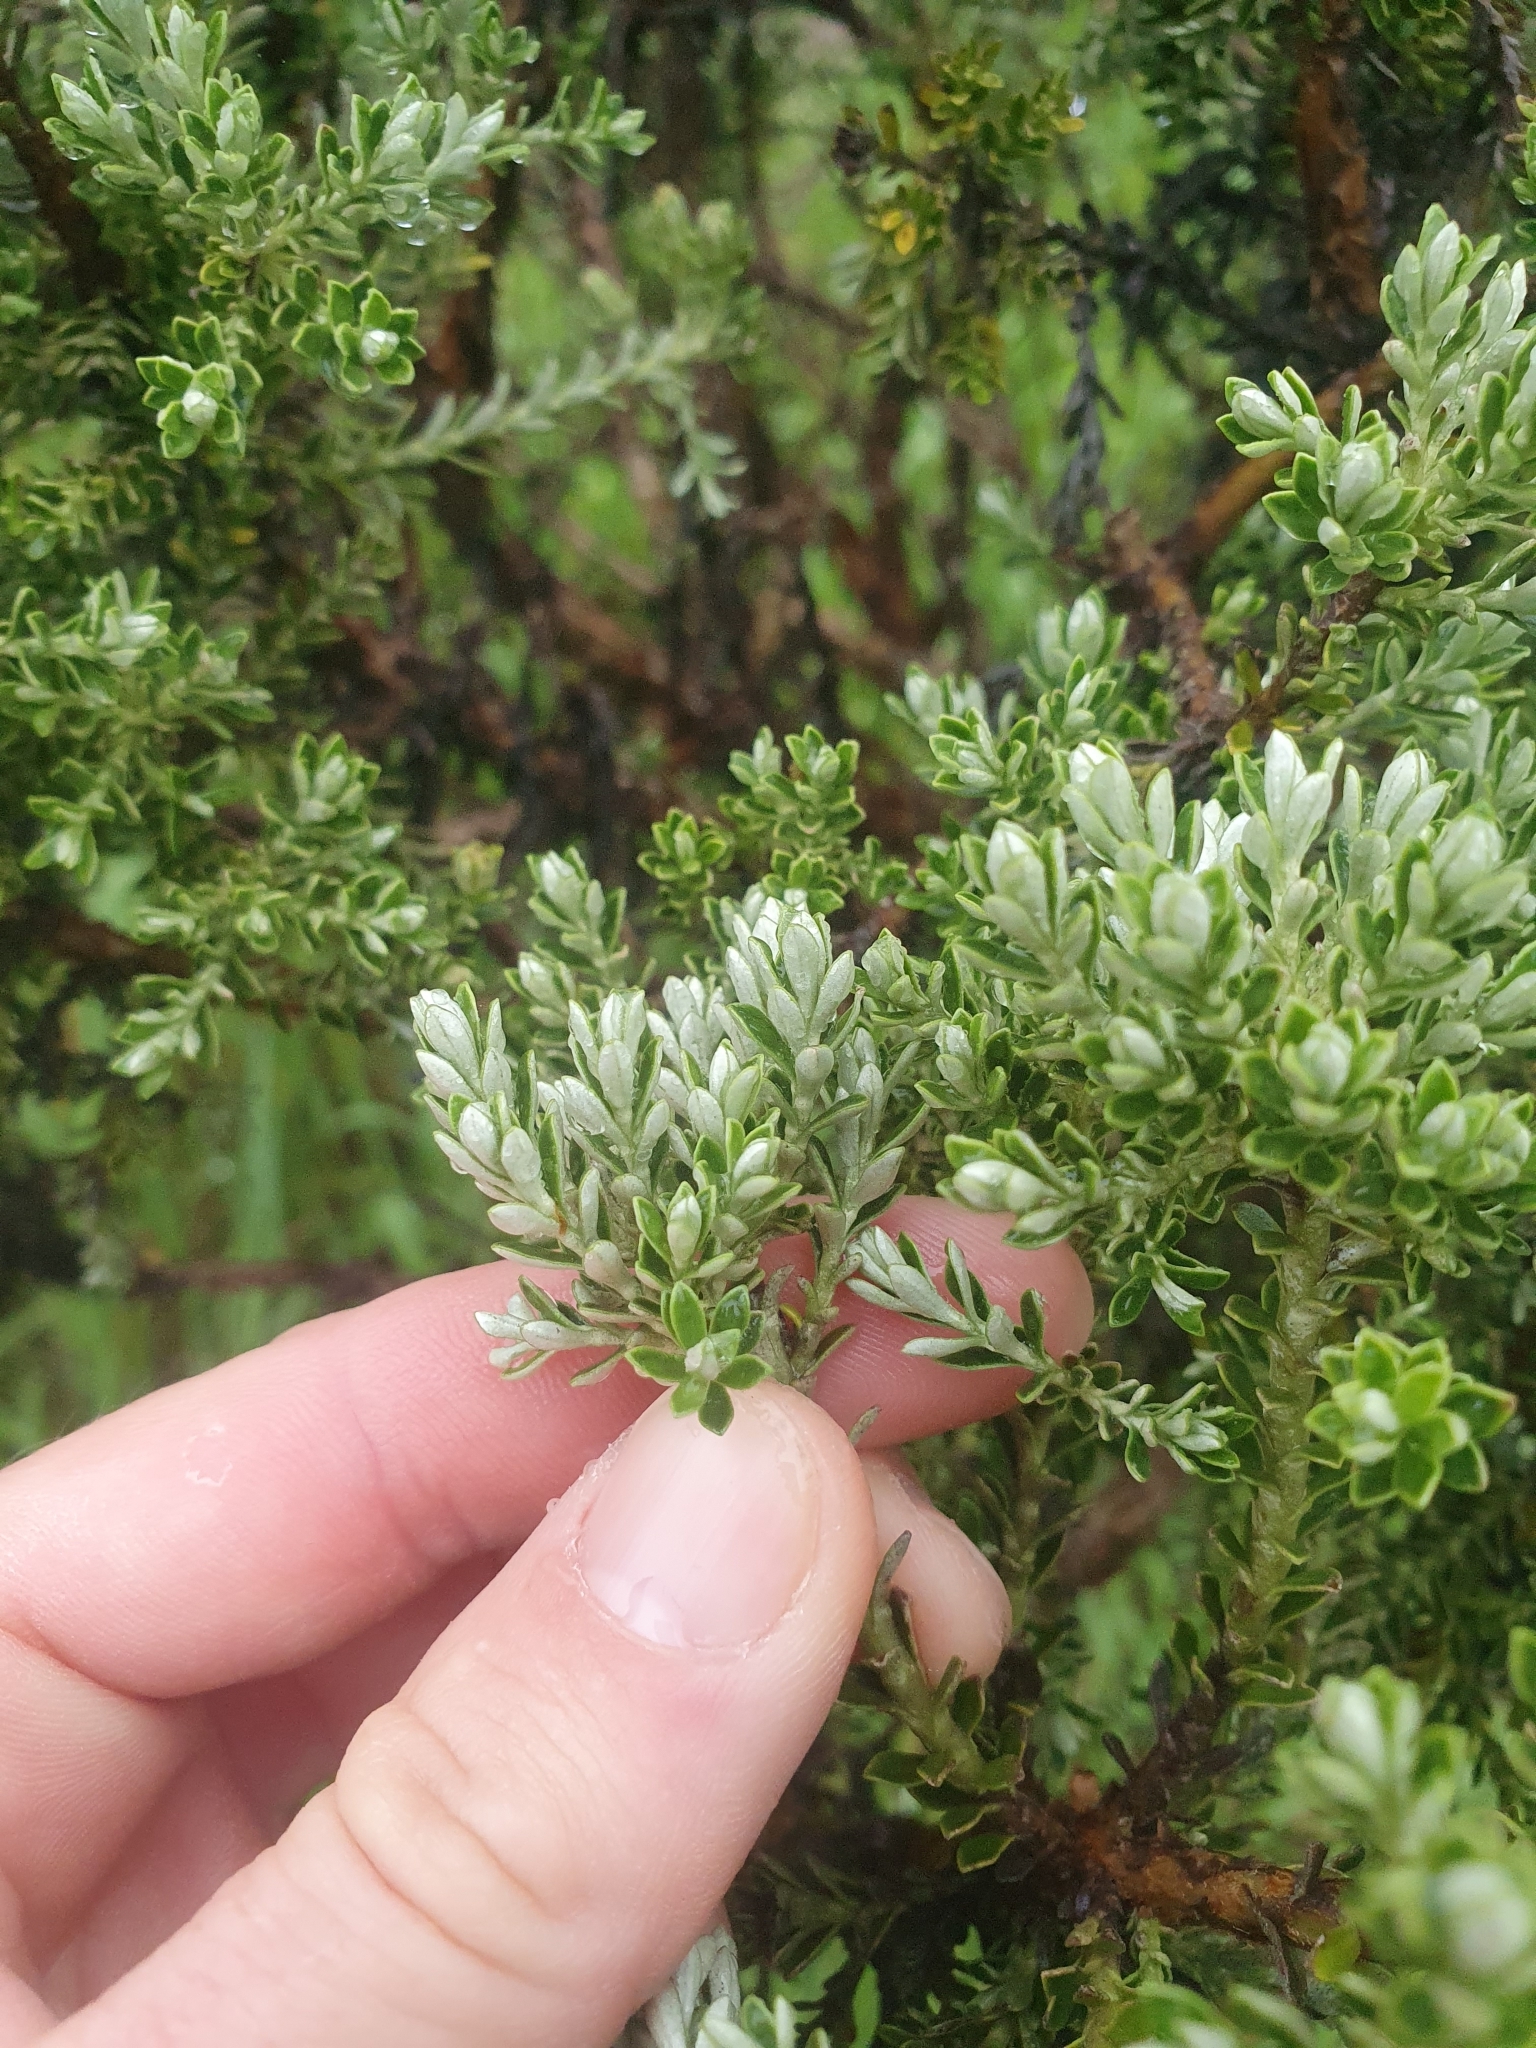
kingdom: Plantae
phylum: Tracheophyta
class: Magnoliopsida
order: Asterales
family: Asteraceae
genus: Brachyglottis
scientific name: Brachyglottis cassinioides
